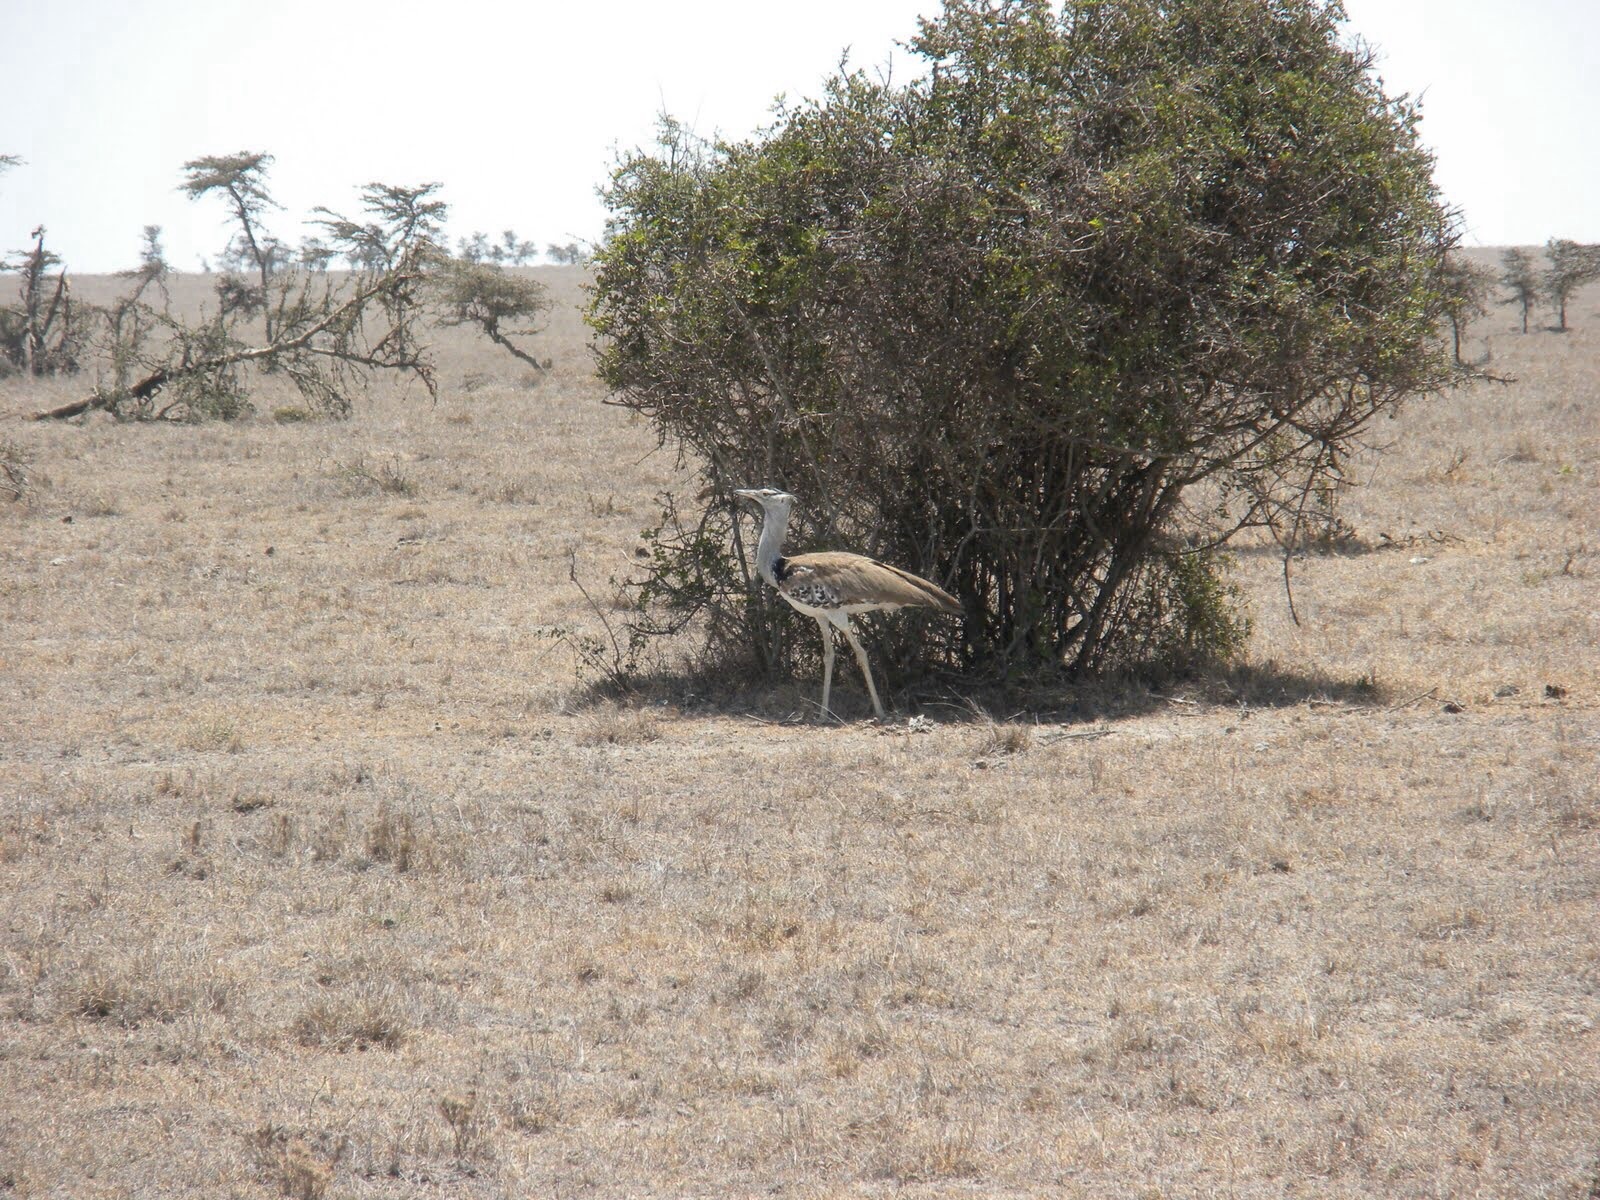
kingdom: Animalia
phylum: Chordata
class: Aves
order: Otidiformes
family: Otididae
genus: Ardeotis
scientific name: Ardeotis kori
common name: Kori bustard
